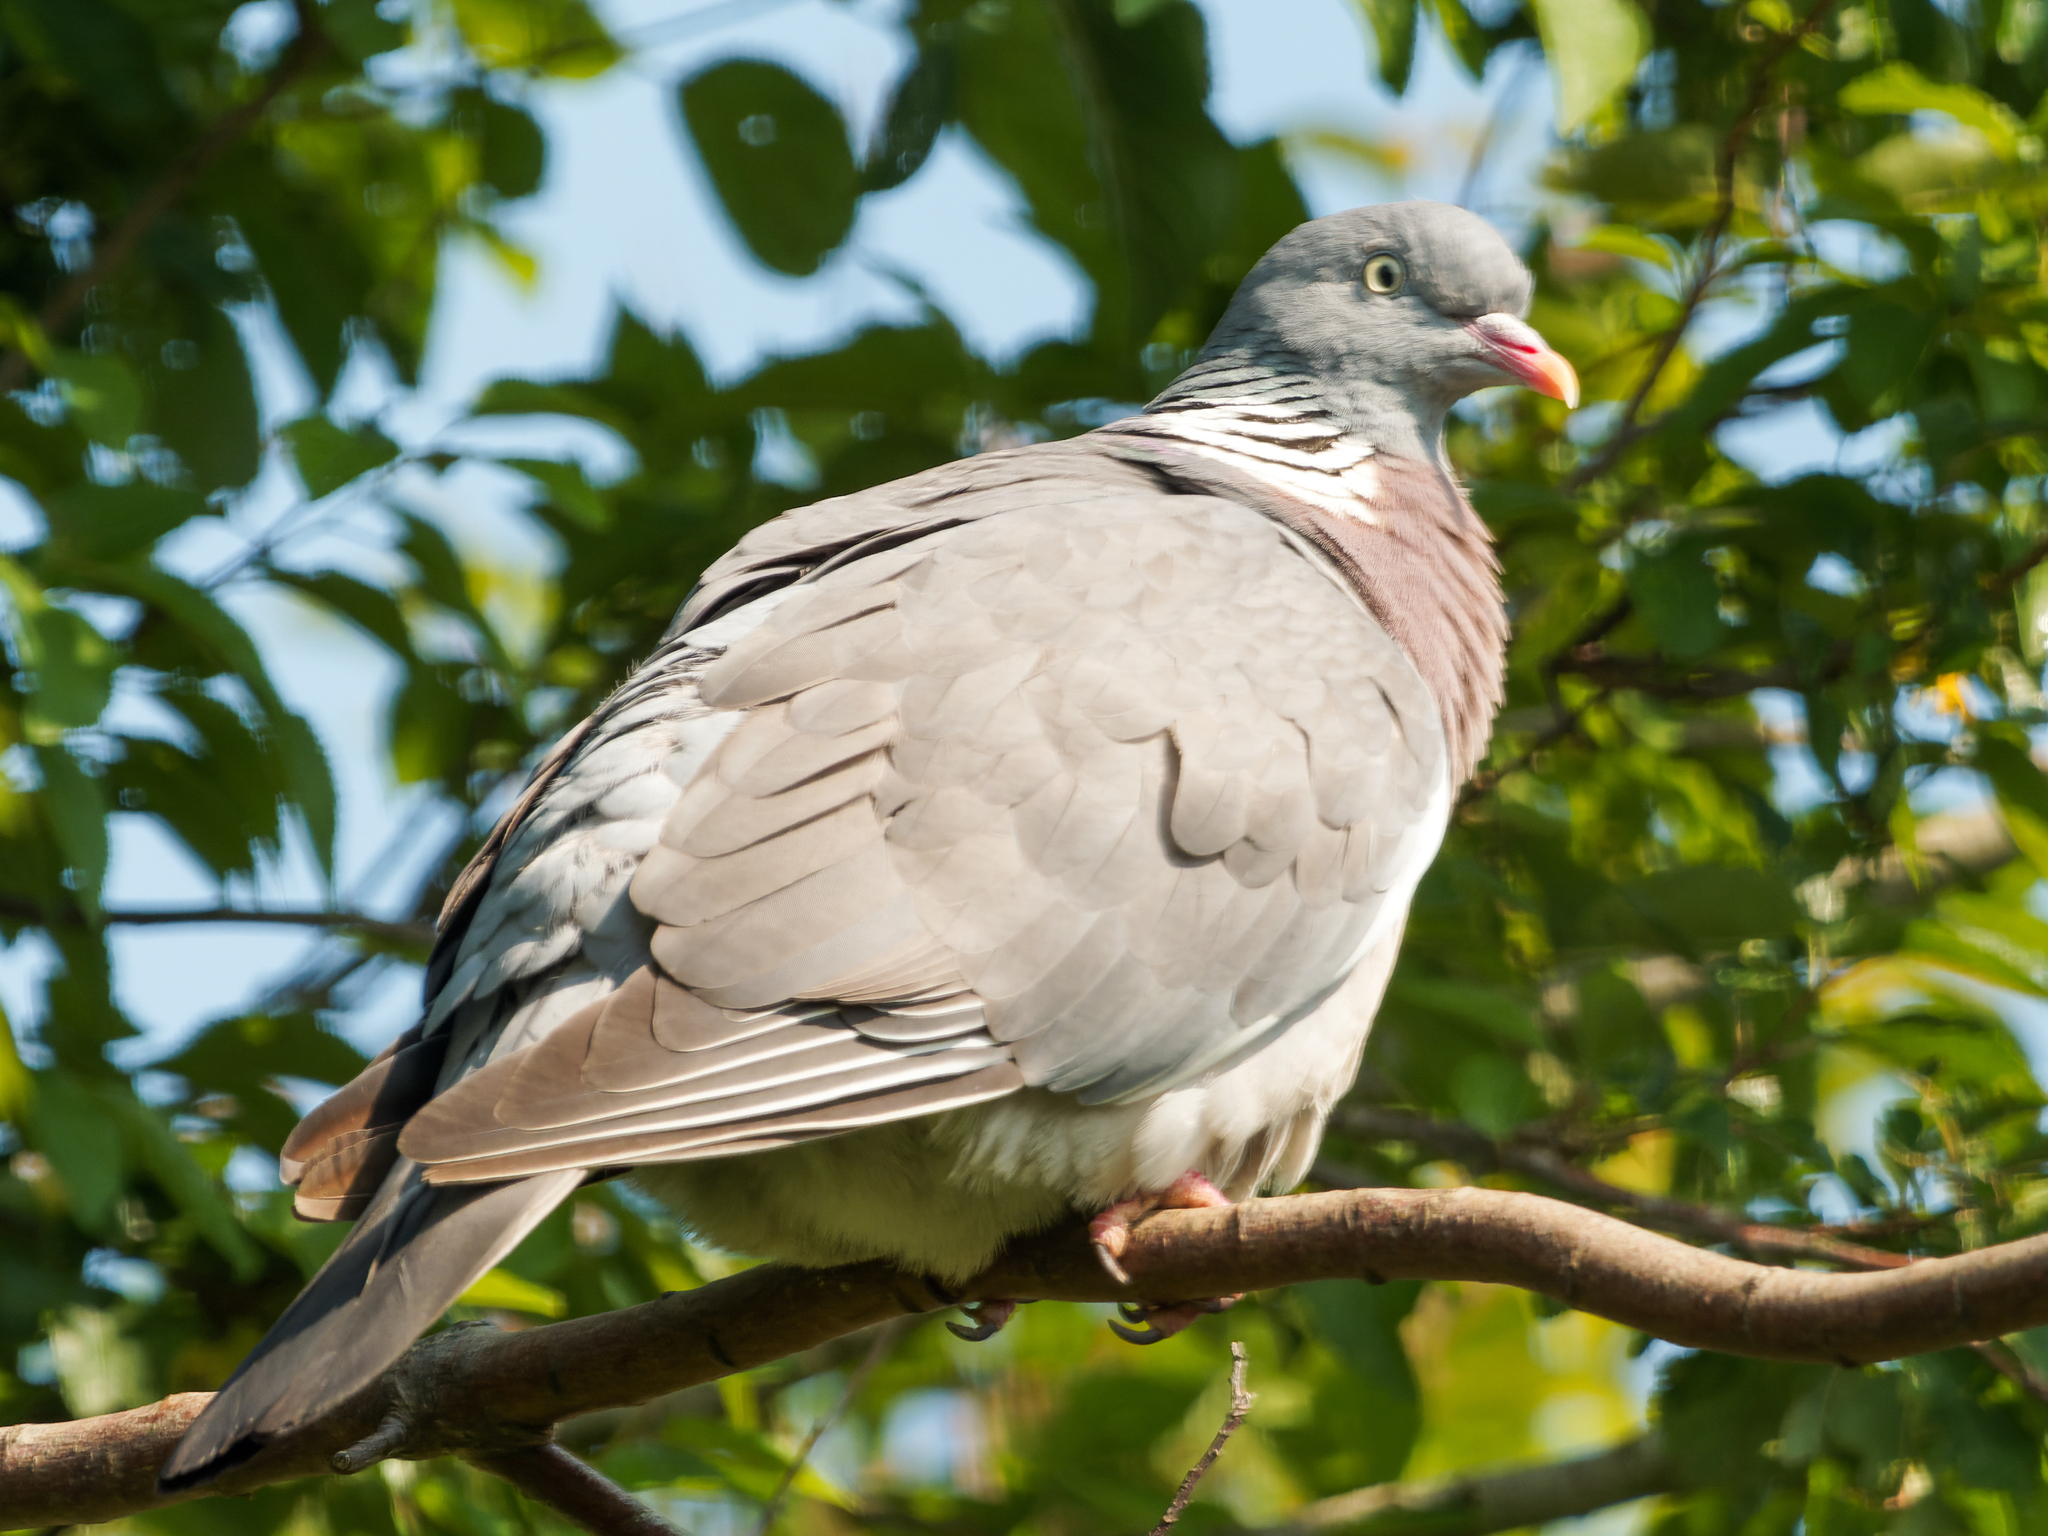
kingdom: Animalia
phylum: Chordata
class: Aves
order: Columbiformes
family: Columbidae
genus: Columba
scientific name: Columba palumbus
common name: Common wood pigeon
